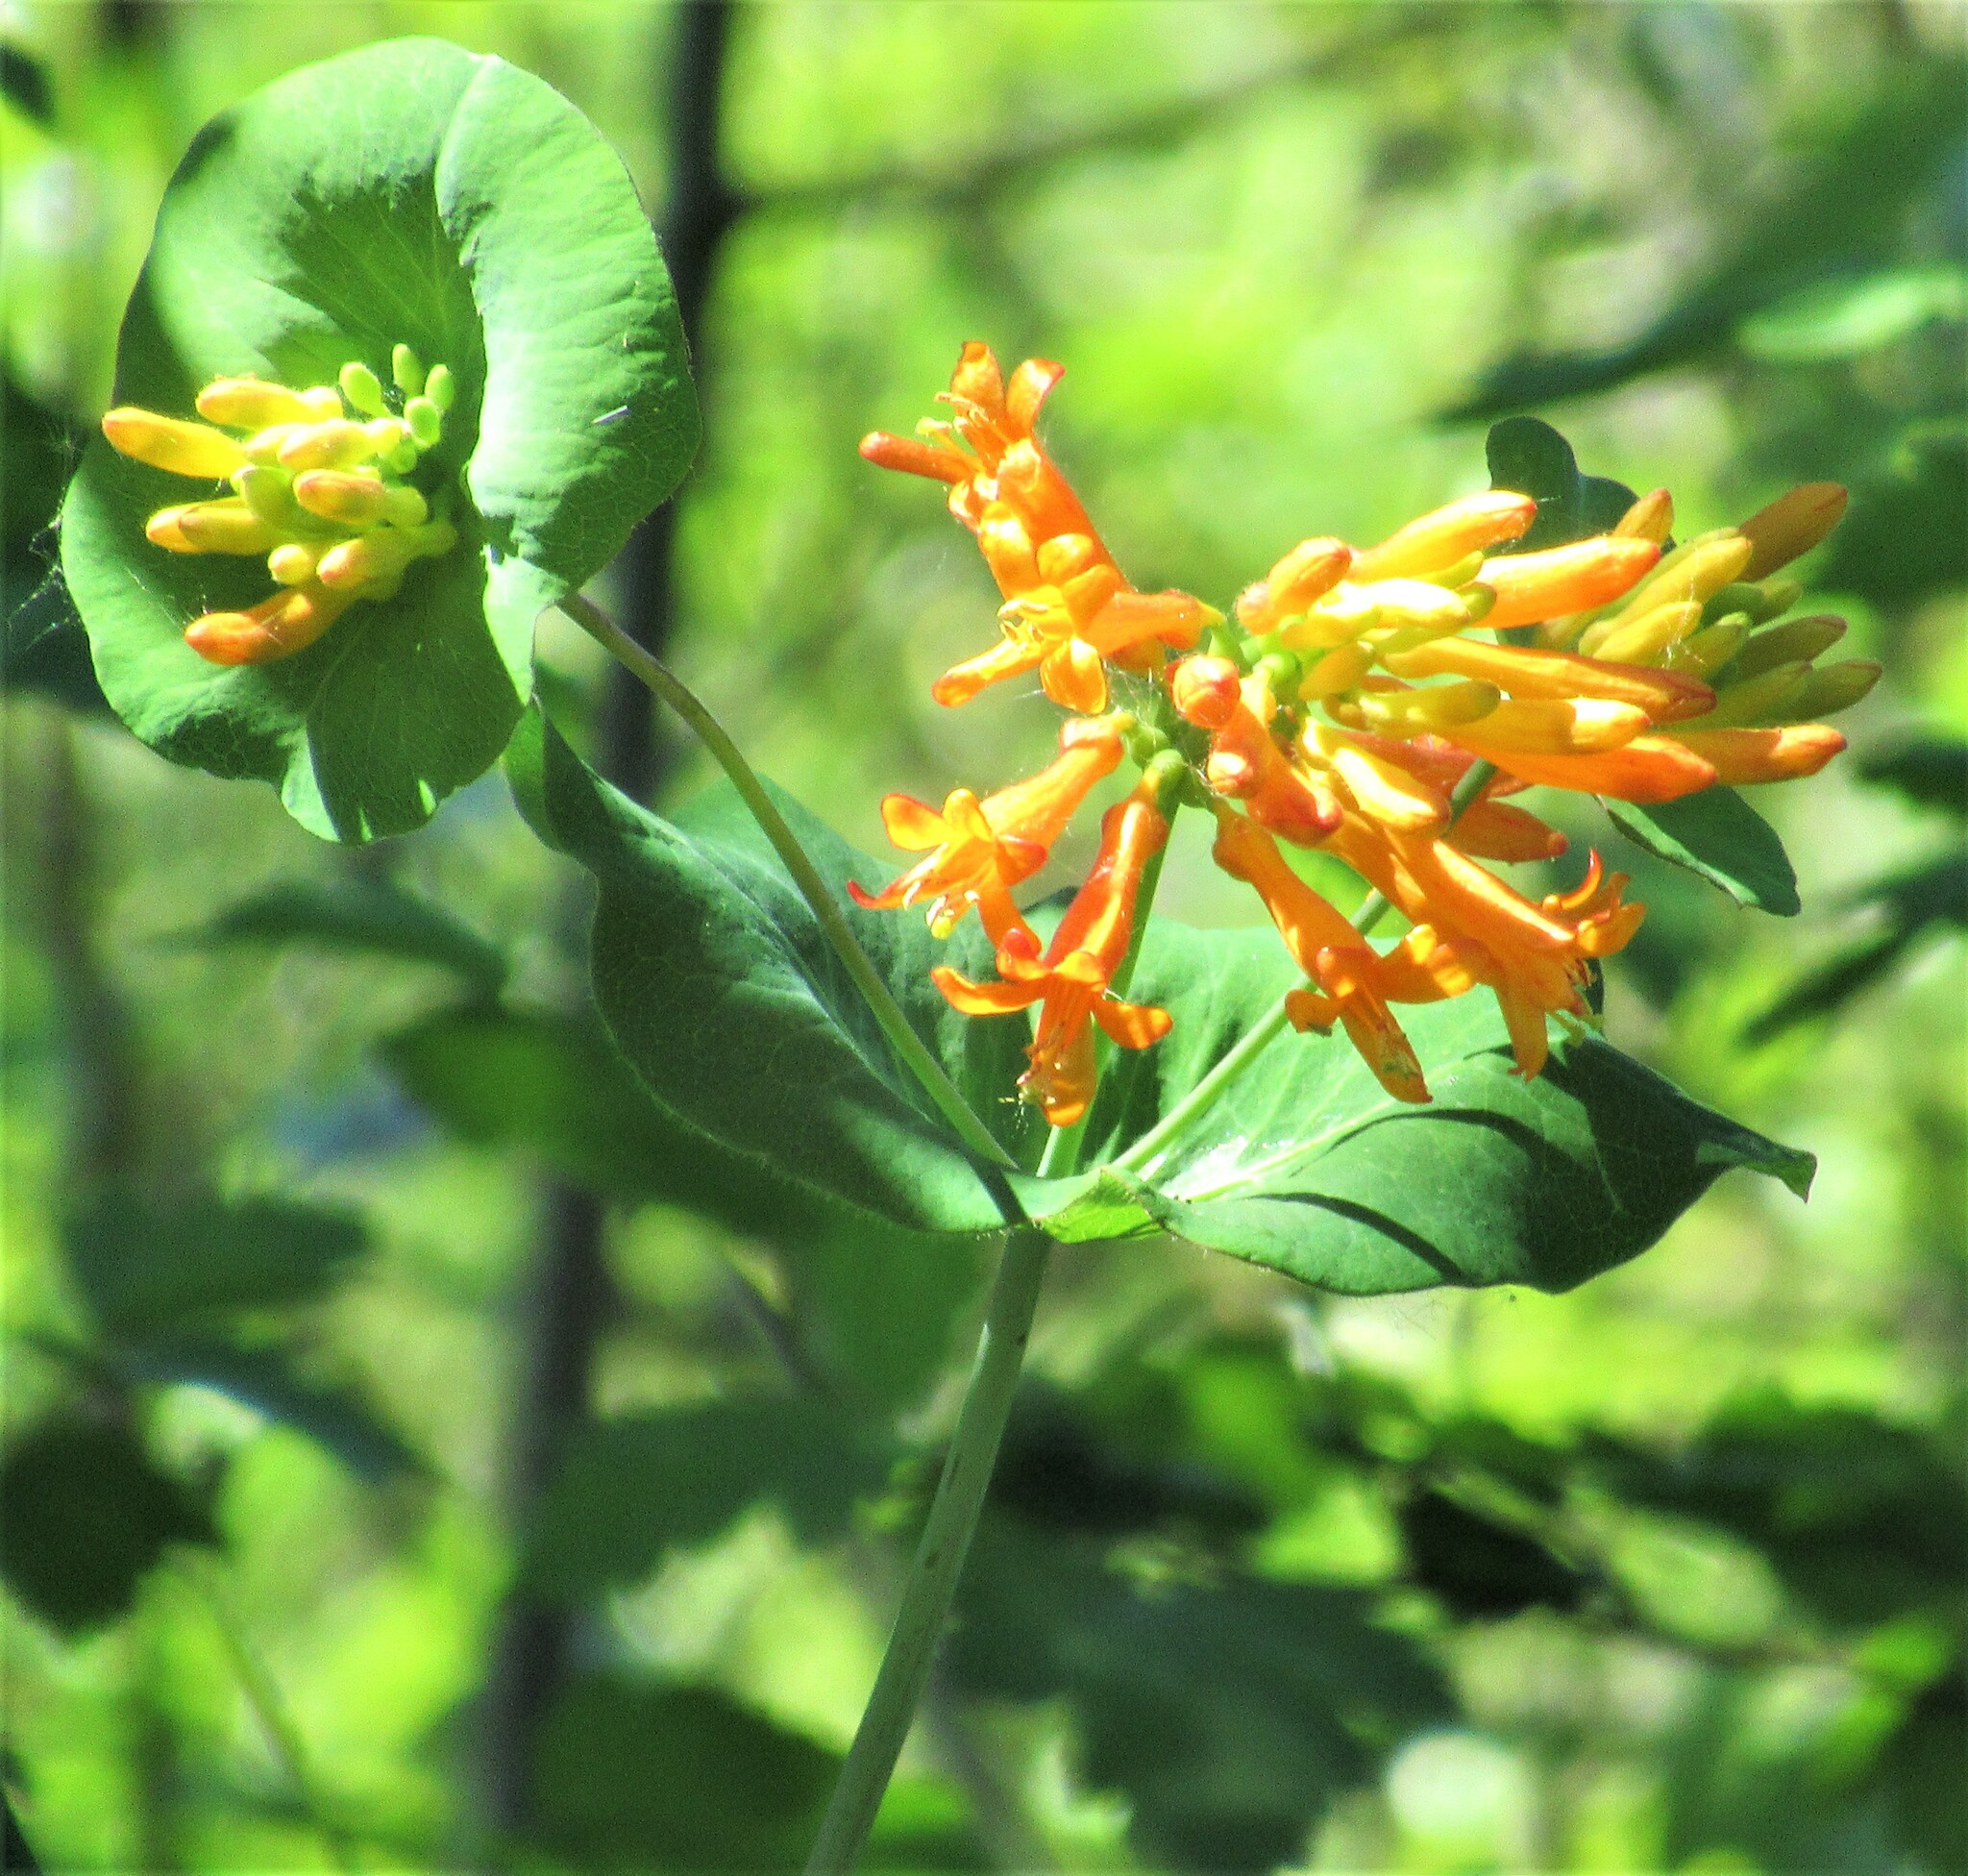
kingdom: Plantae
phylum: Tracheophyta
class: Magnoliopsida
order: Dipsacales
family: Caprifoliaceae
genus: Lonicera
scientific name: Lonicera ciliosa
